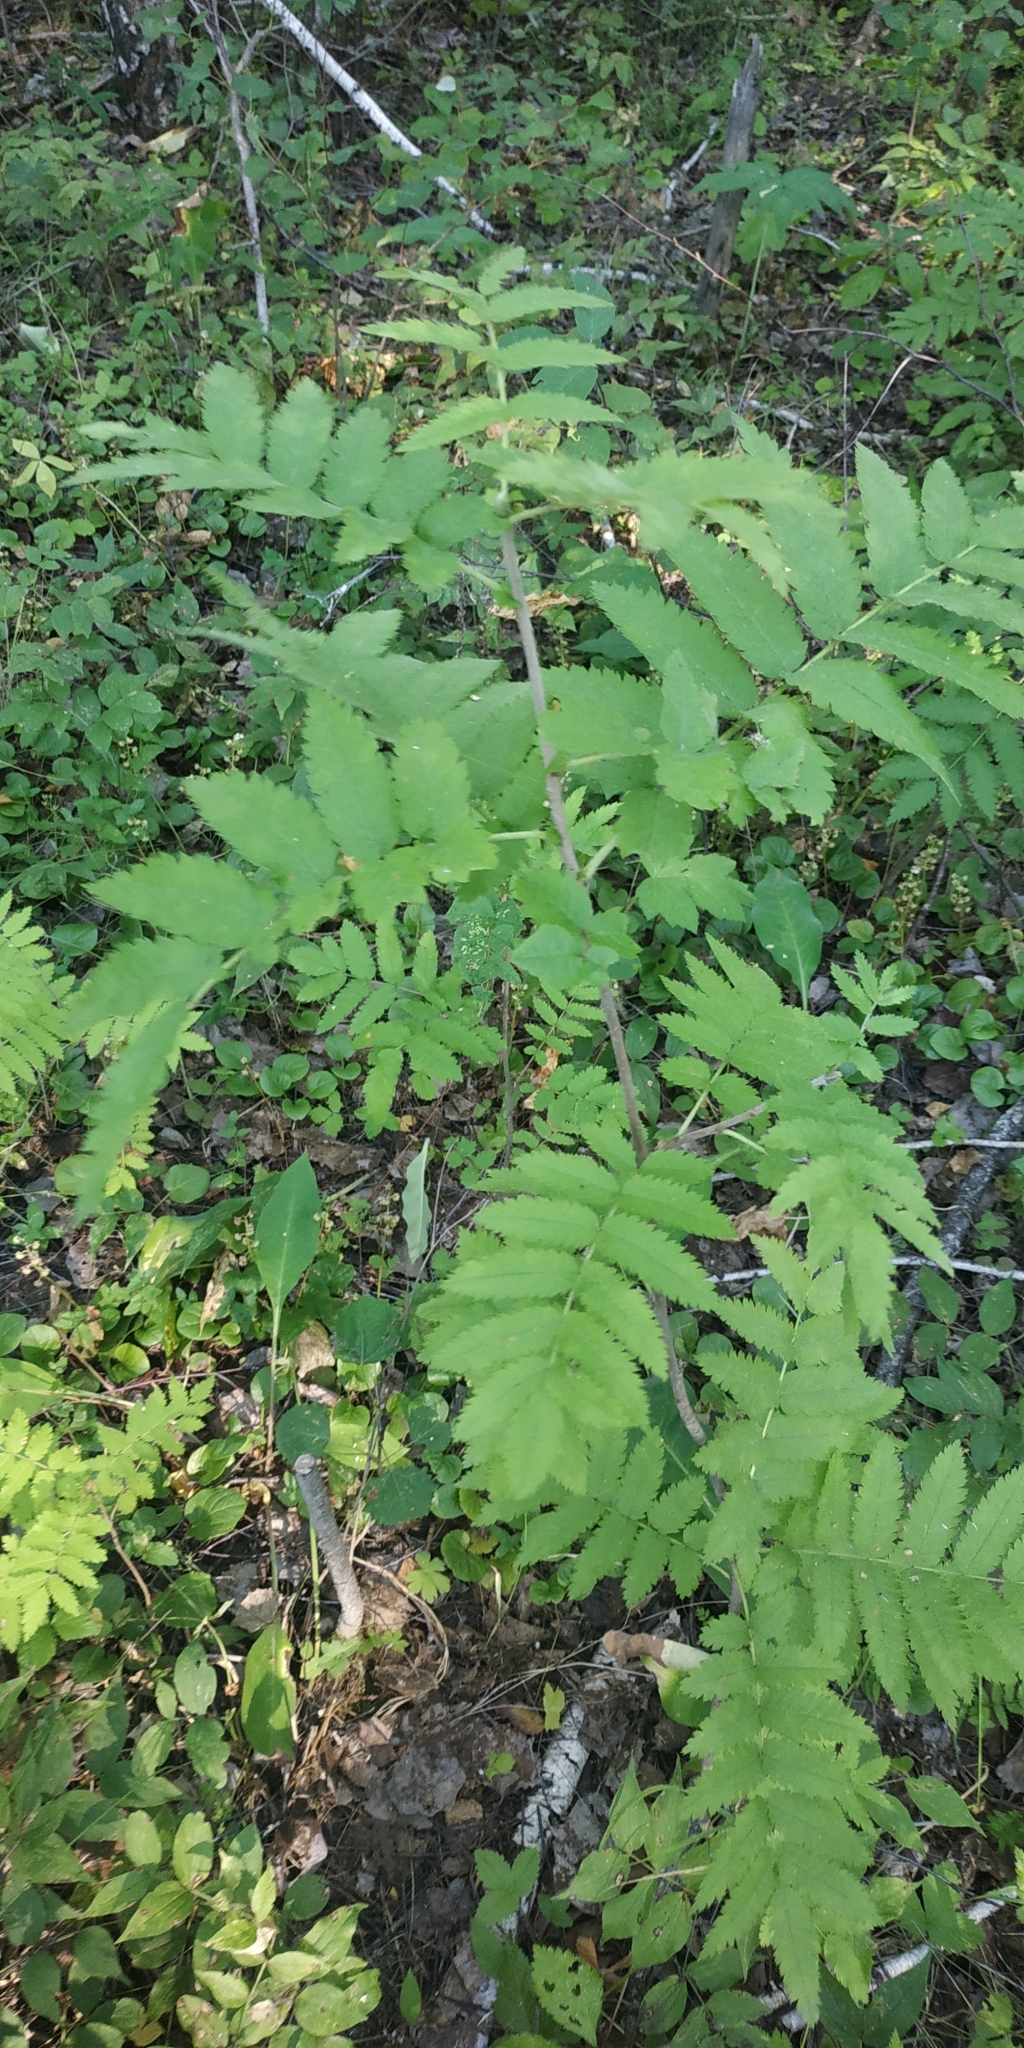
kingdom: Plantae
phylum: Tracheophyta
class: Magnoliopsida
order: Rosales
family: Rosaceae
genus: Sorbus
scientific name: Sorbus aucuparia
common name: Rowan
